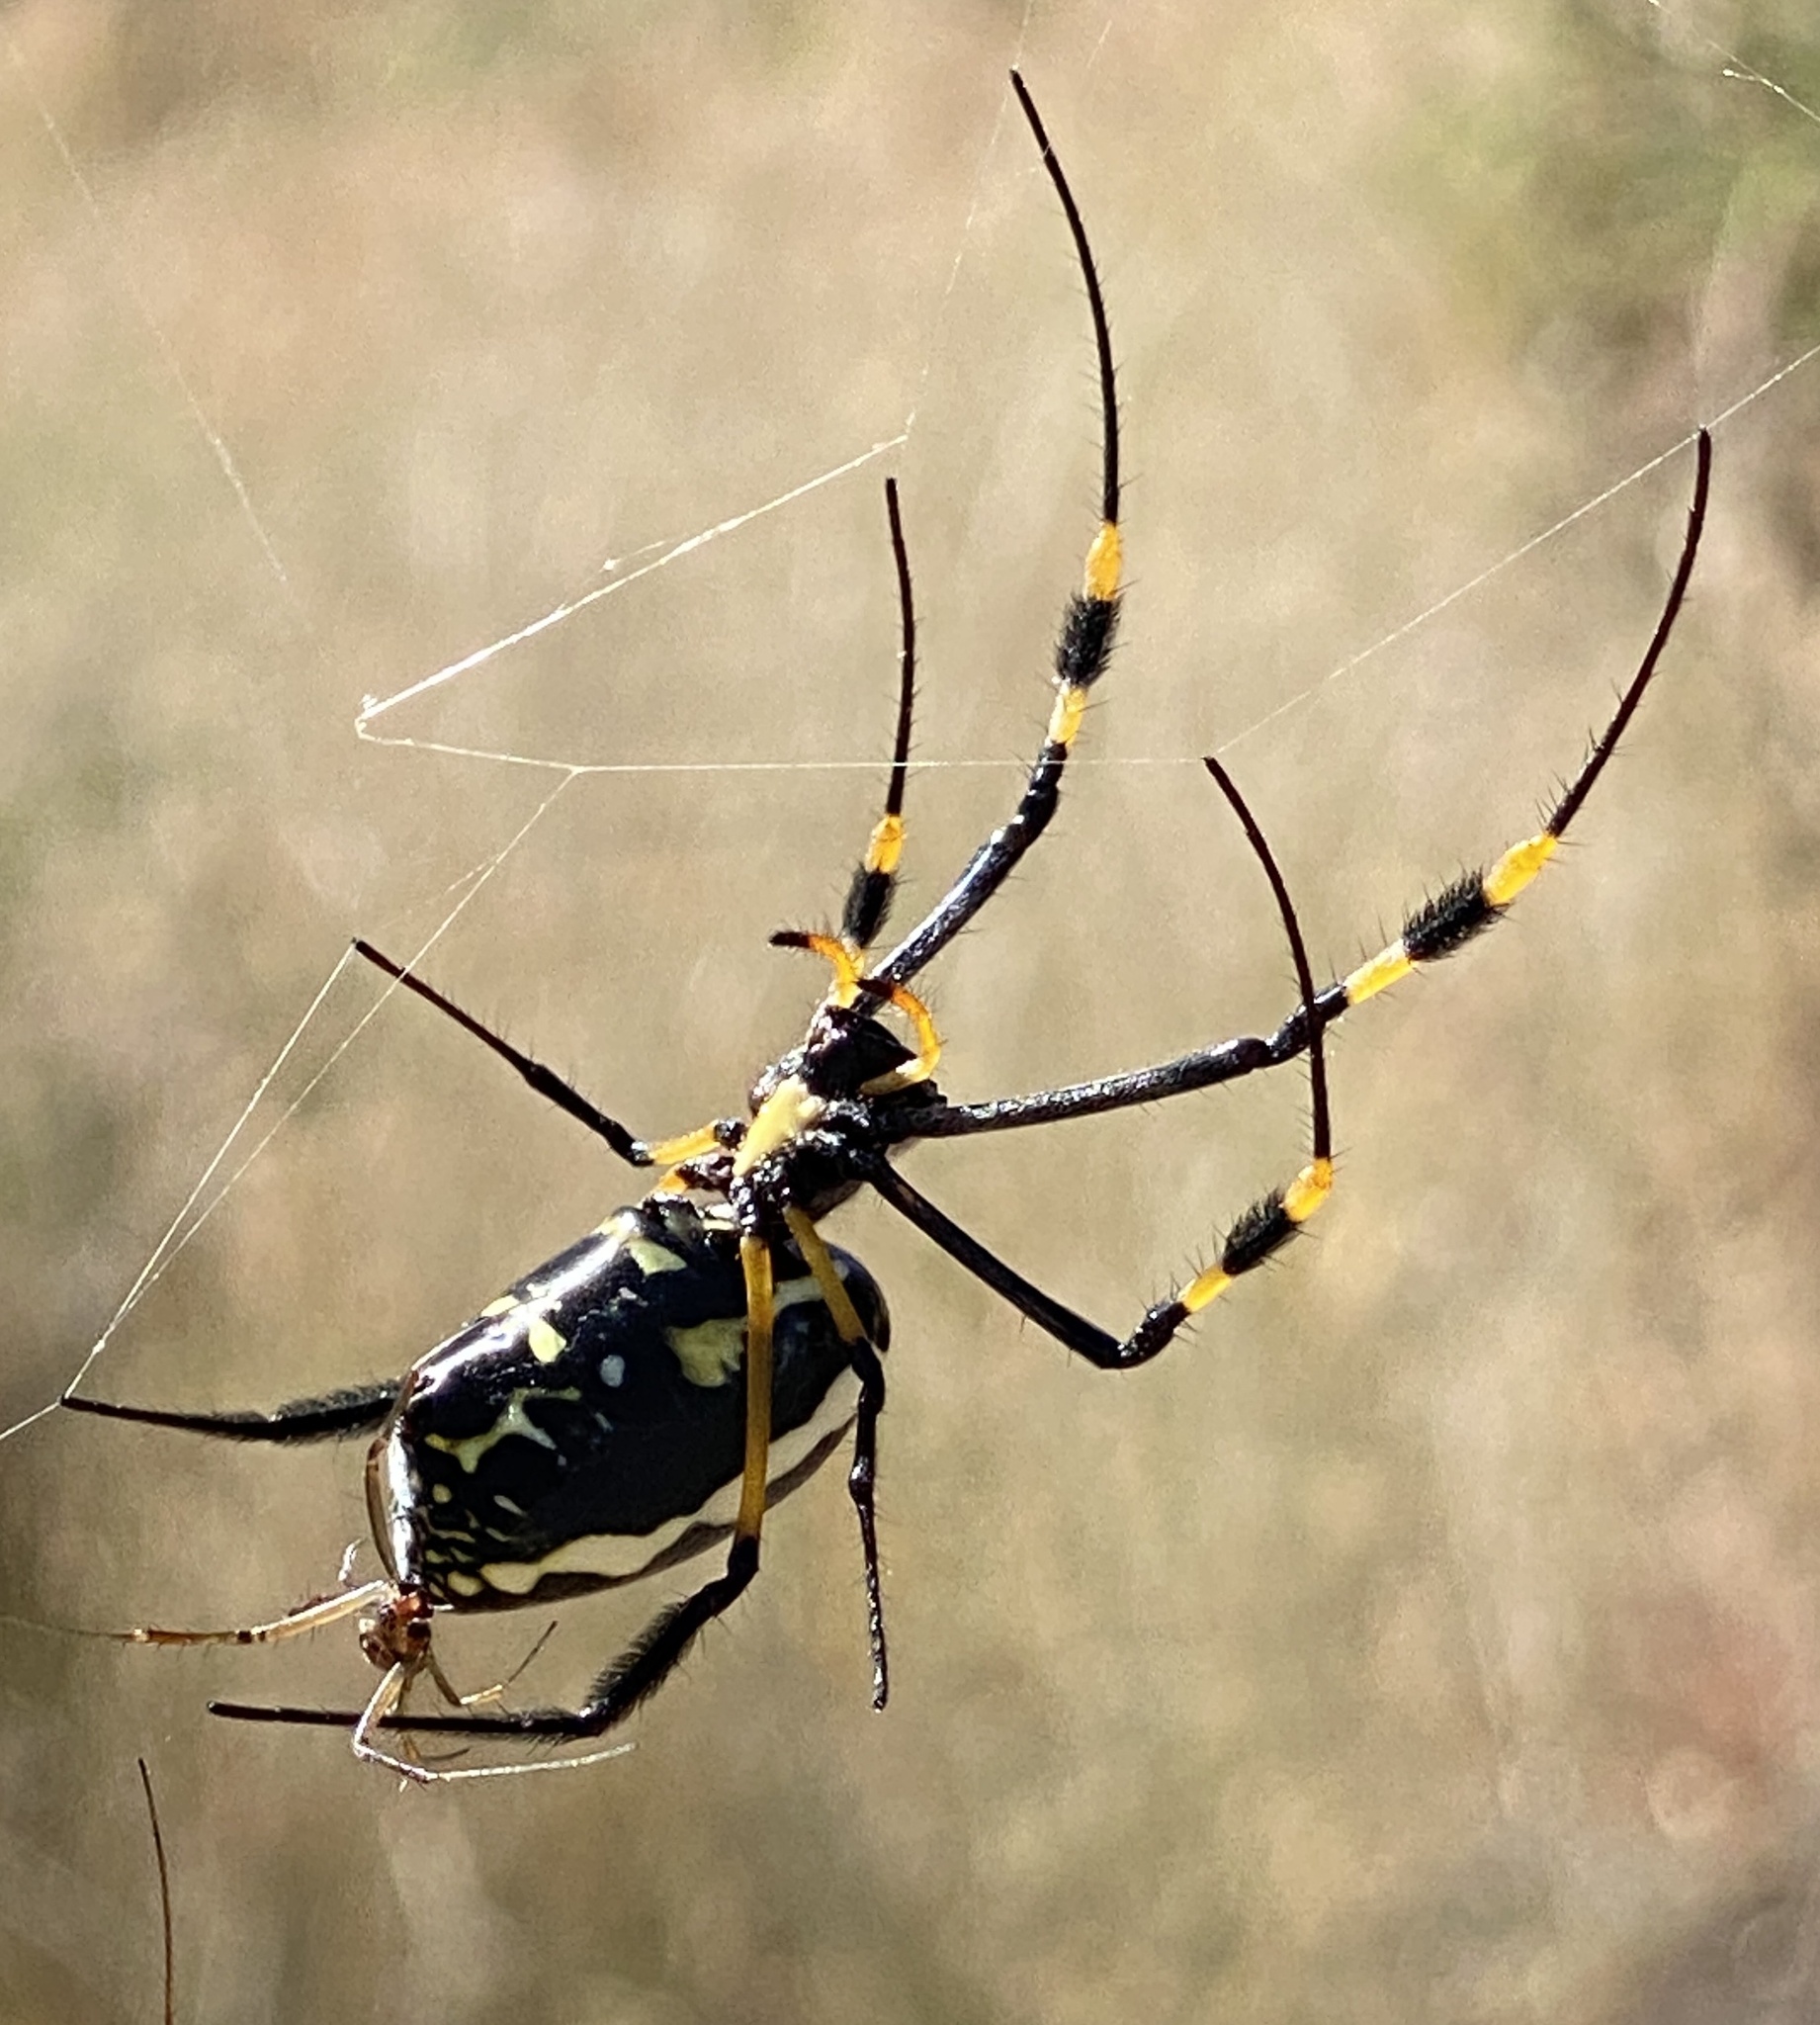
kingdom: Animalia
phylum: Arthropoda
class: Arachnida
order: Araneae
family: Araneidae
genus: Trichonephila
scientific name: Trichonephila senegalensis
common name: Banded golden orb weaver
